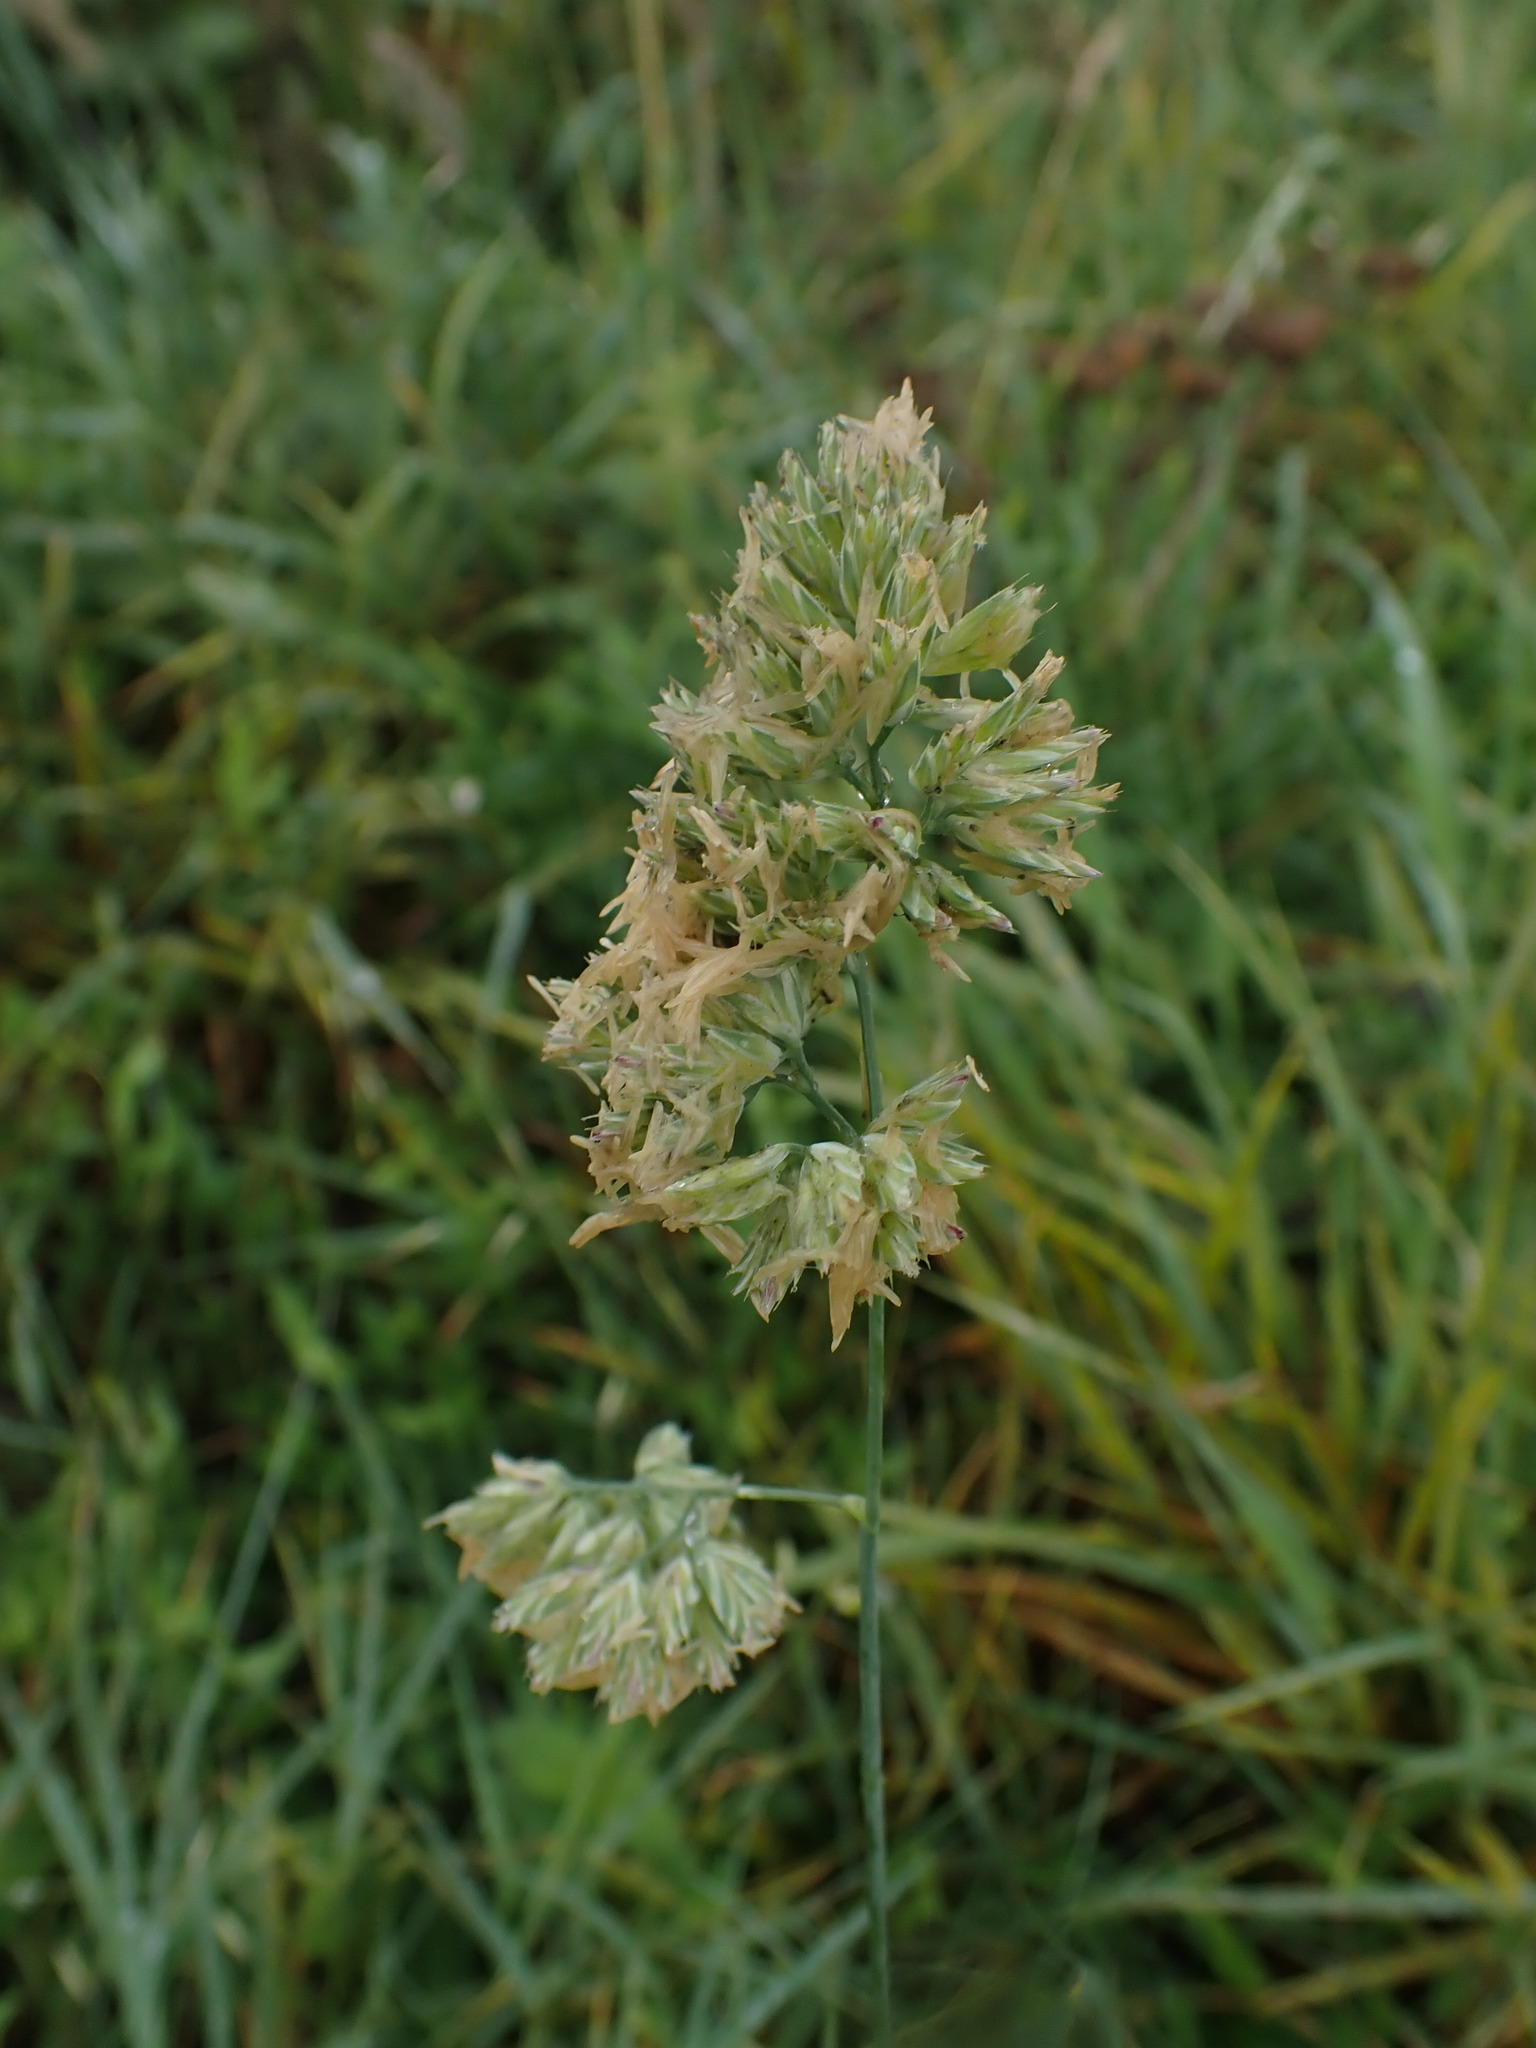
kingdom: Plantae
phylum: Tracheophyta
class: Liliopsida
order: Poales
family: Poaceae
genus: Dactylis
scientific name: Dactylis glomerata
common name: Orchardgrass
